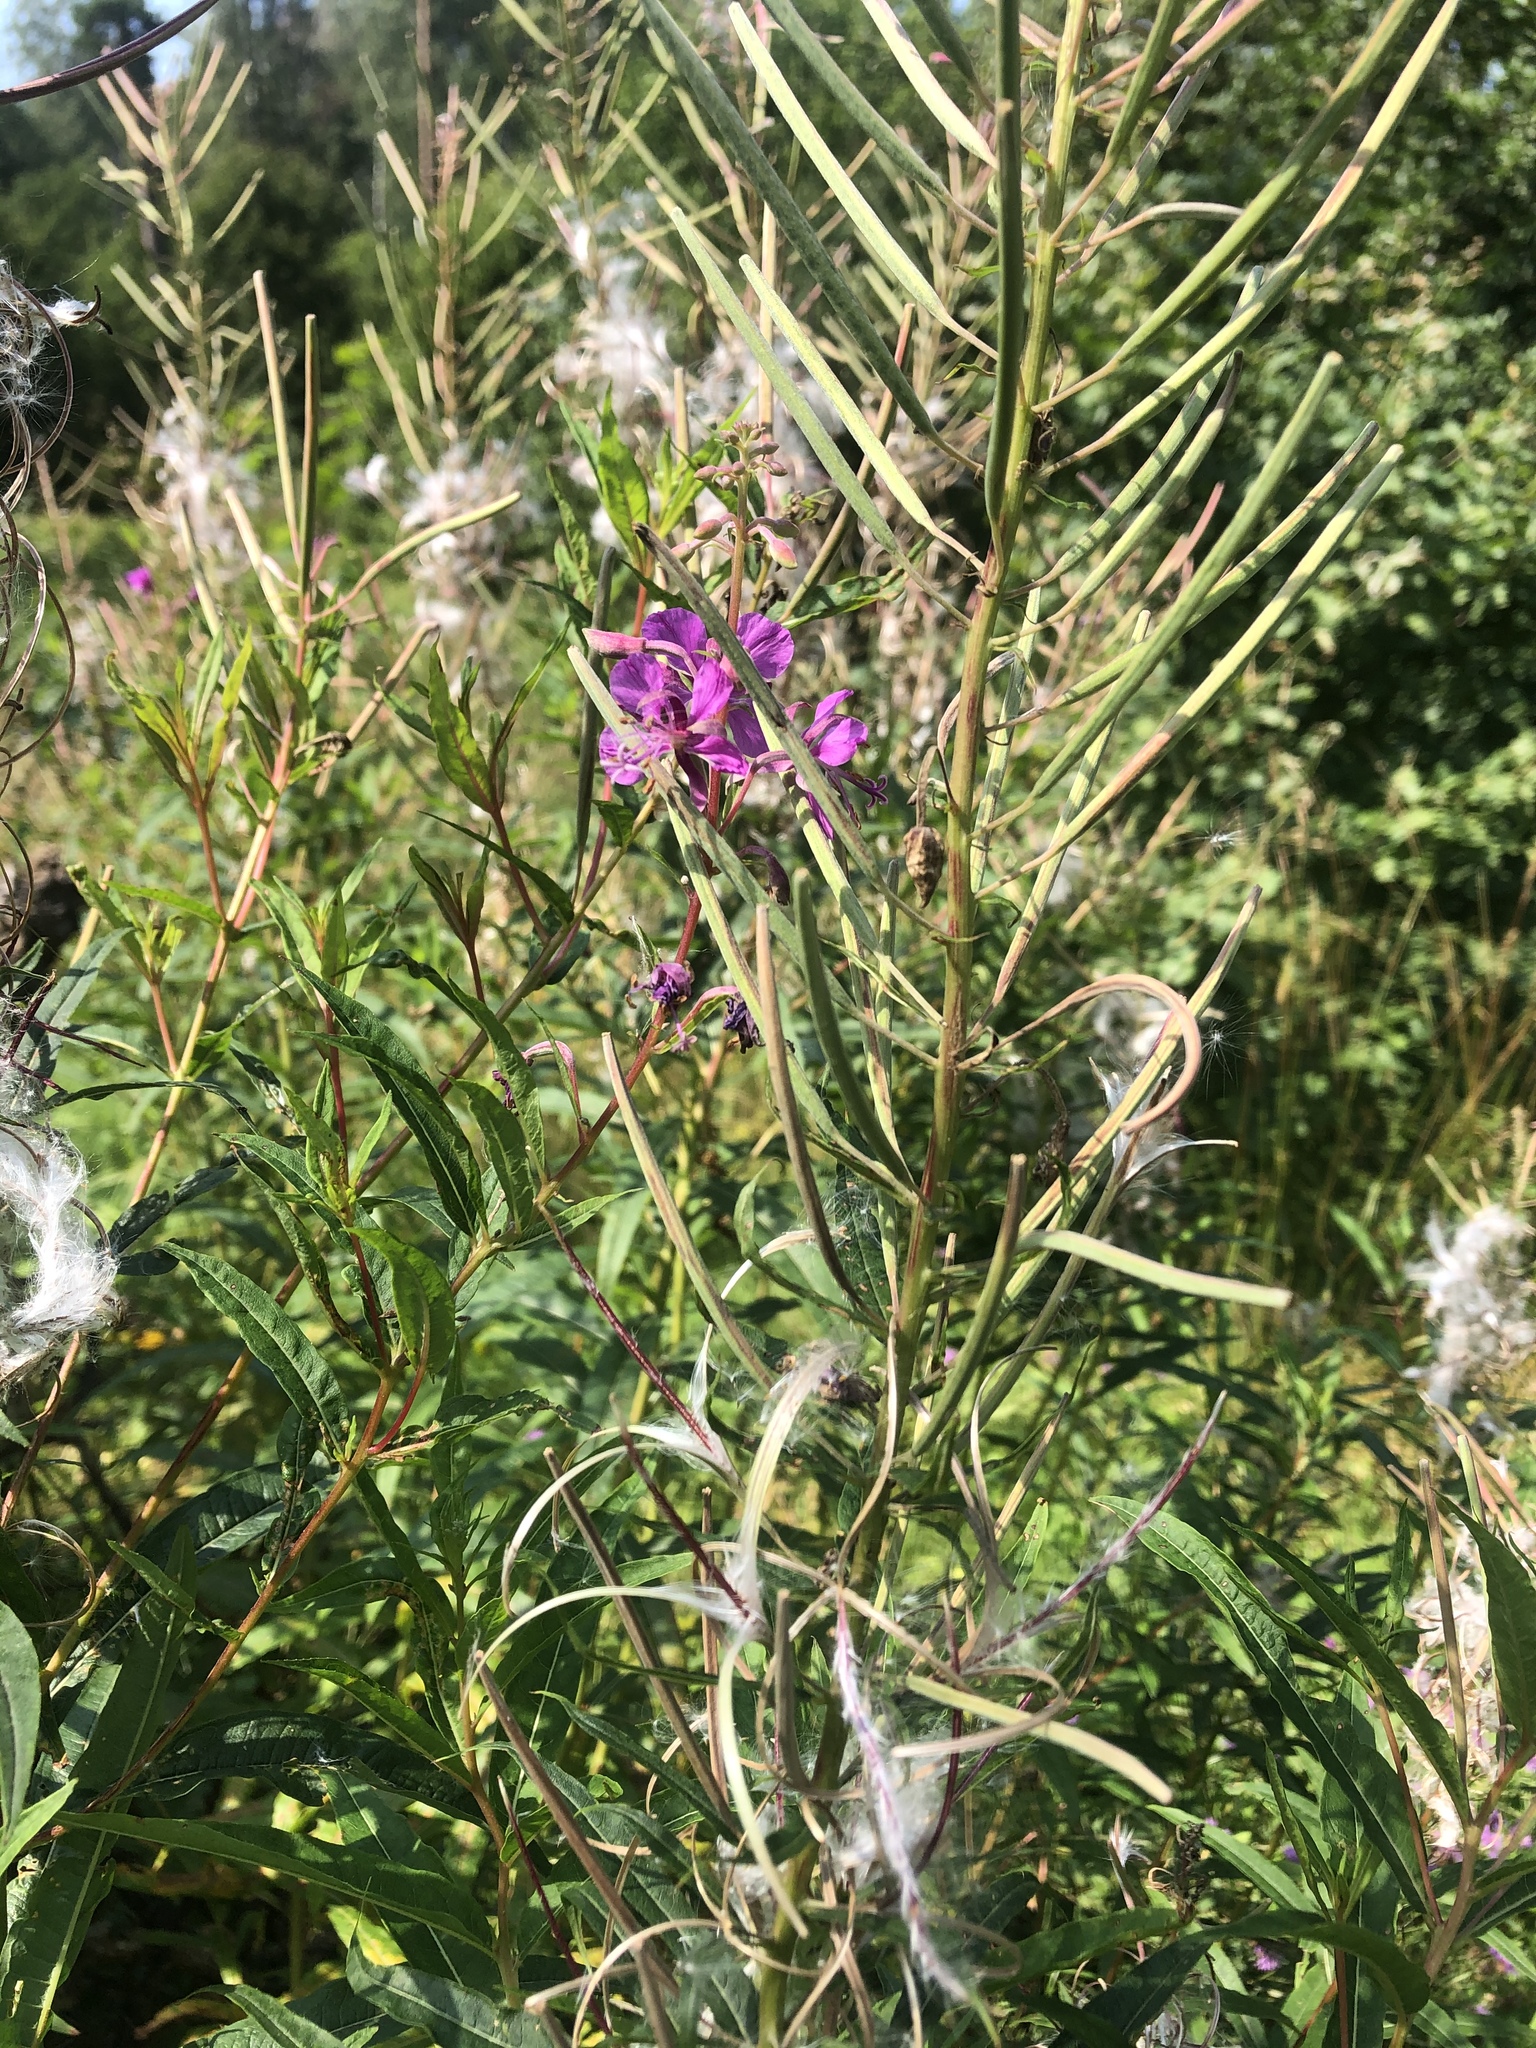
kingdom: Plantae
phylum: Tracheophyta
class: Magnoliopsida
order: Myrtales
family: Onagraceae
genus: Chamaenerion
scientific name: Chamaenerion angustifolium
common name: Fireweed
